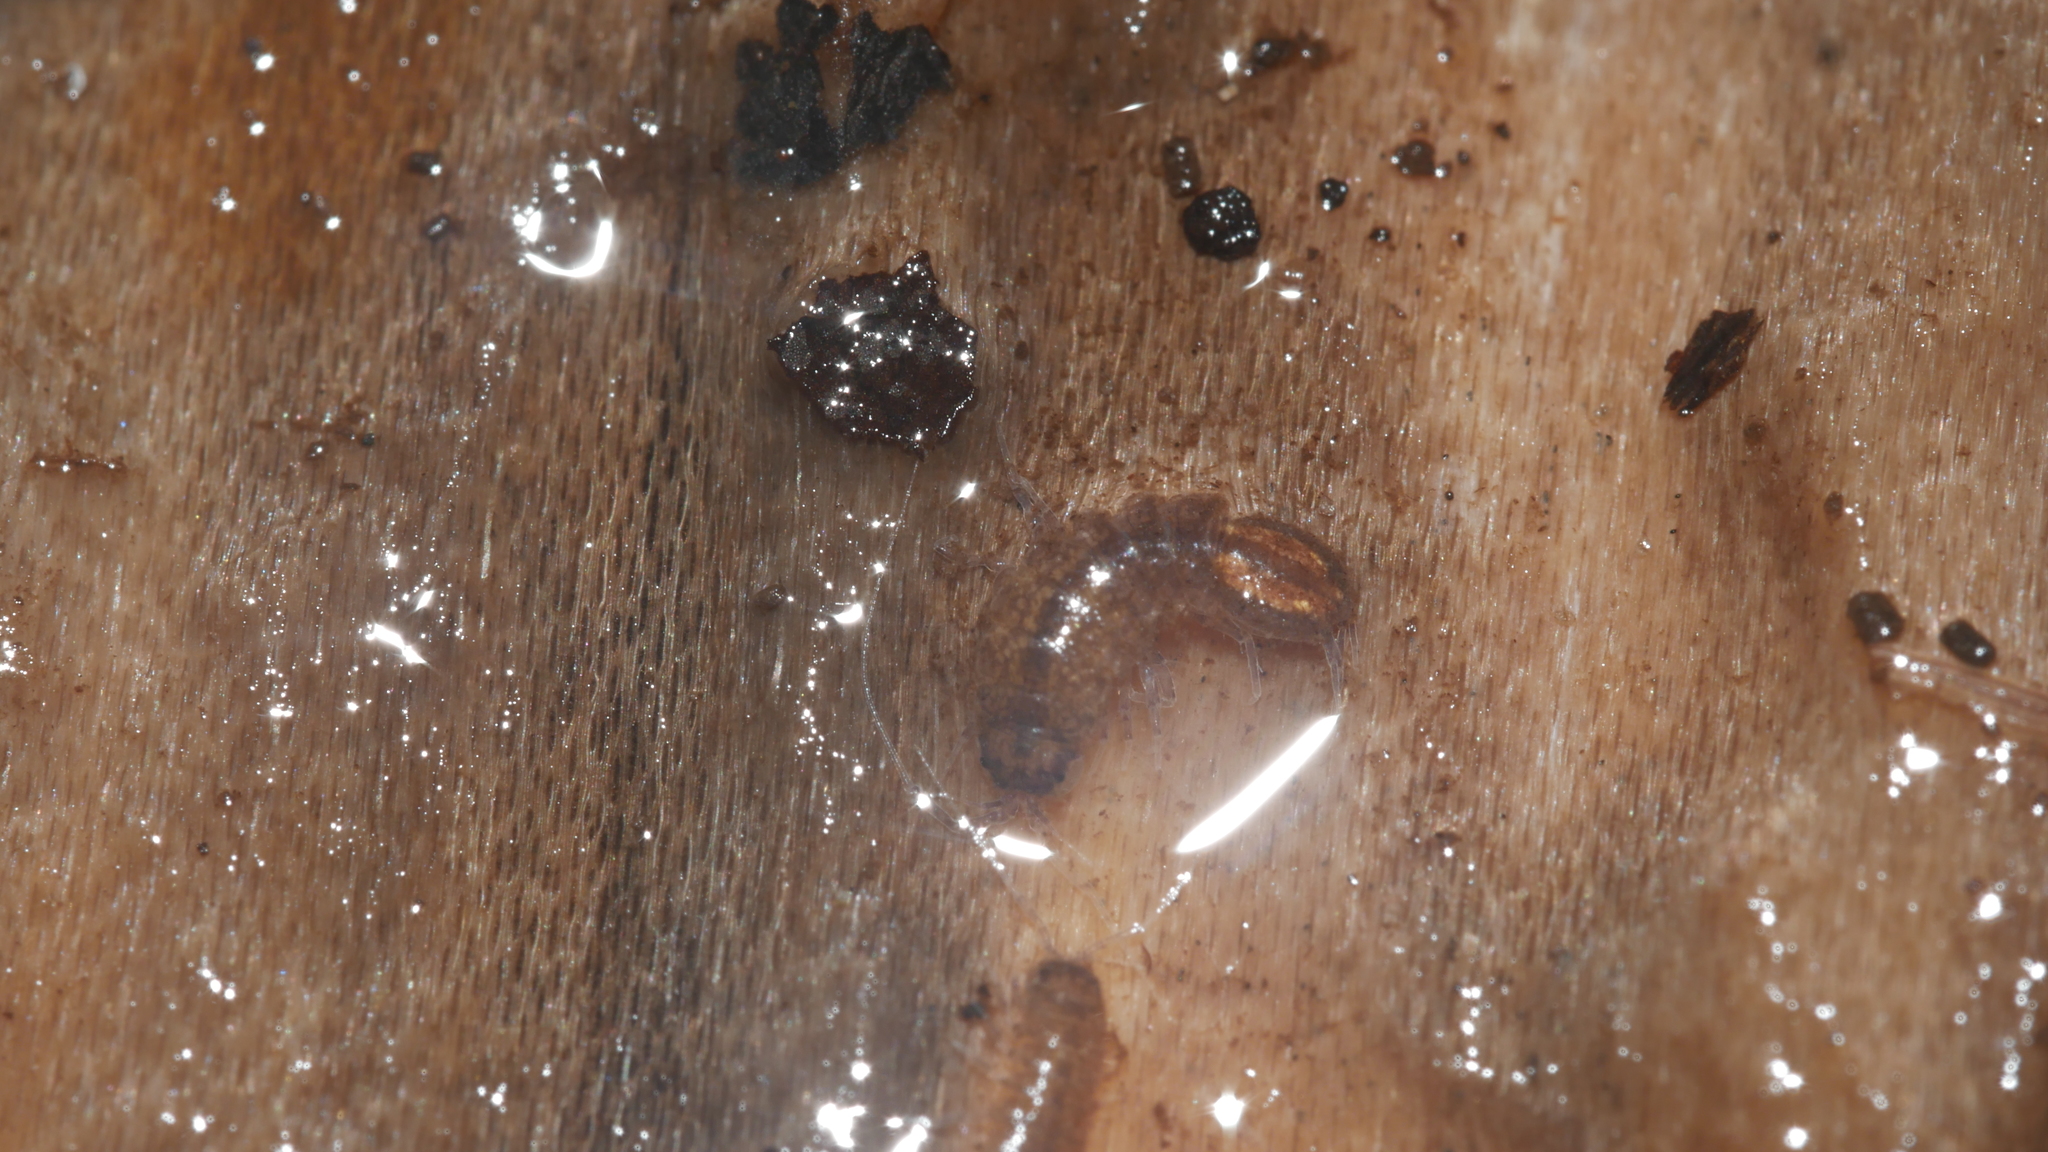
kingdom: Animalia
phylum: Arthropoda
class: Malacostraca
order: Isopoda
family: Asellidae
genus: Caecidotea
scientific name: Caecidotea nodula
